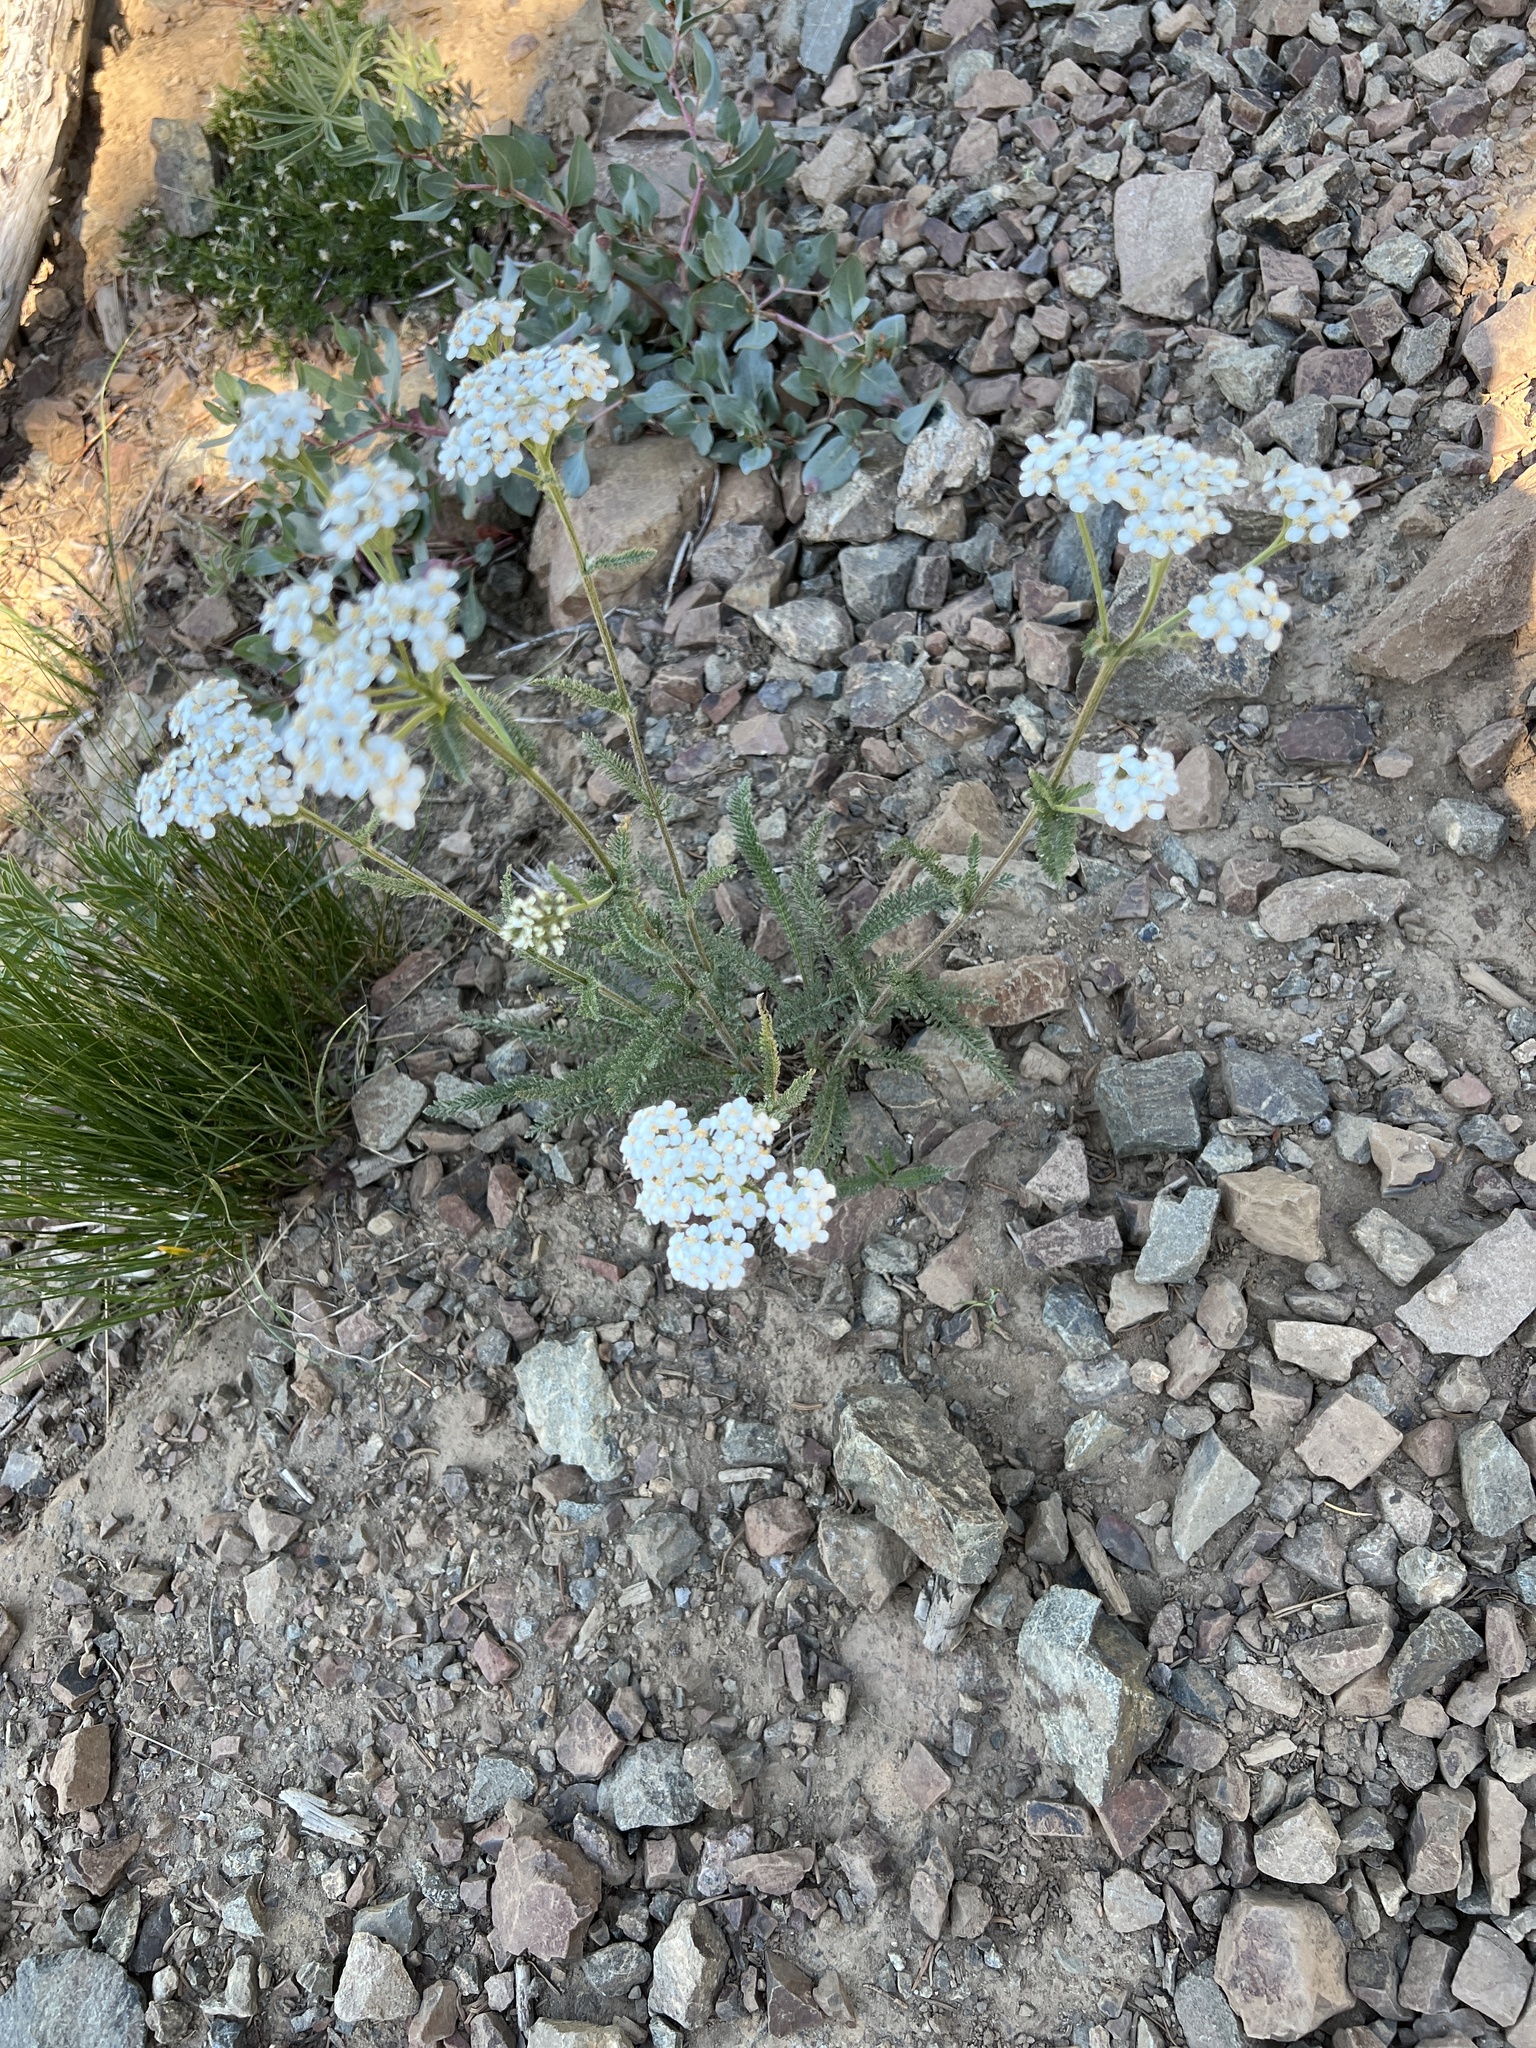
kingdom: Plantae
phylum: Tracheophyta
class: Magnoliopsida
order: Asterales
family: Asteraceae
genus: Achillea
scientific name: Achillea millefolium
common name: Yarrow
